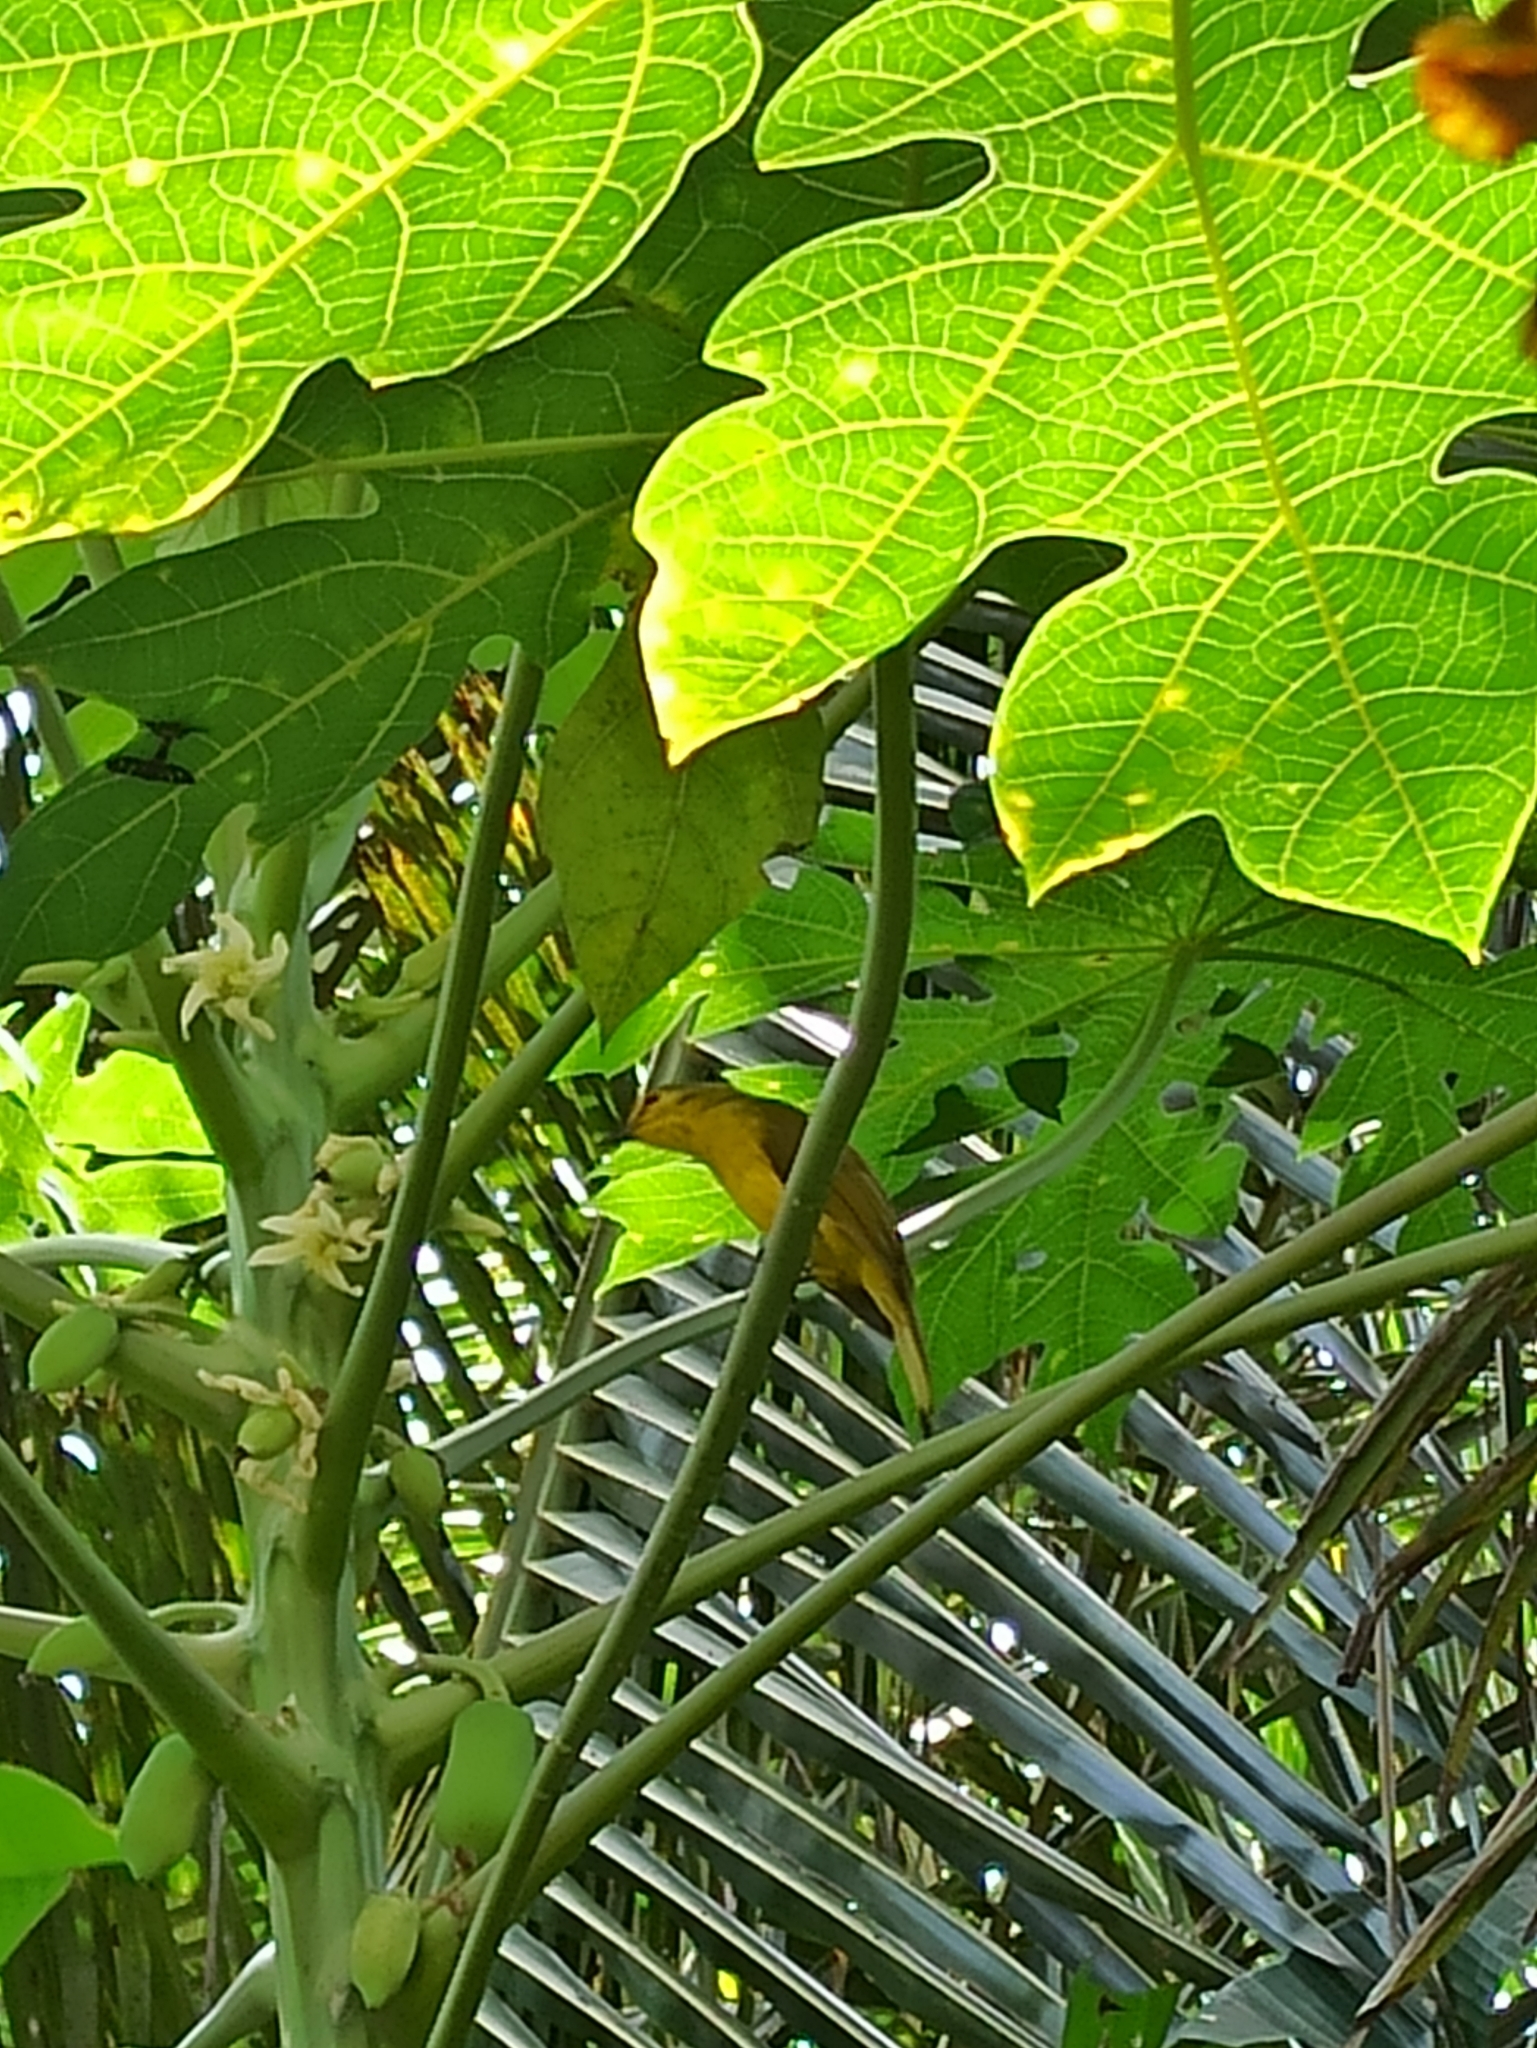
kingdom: Animalia
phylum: Chordata
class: Aves
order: Passeriformes
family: Pycnonotidae
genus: Acritillas
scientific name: Acritillas indica
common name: Yellow-browed bulbul
